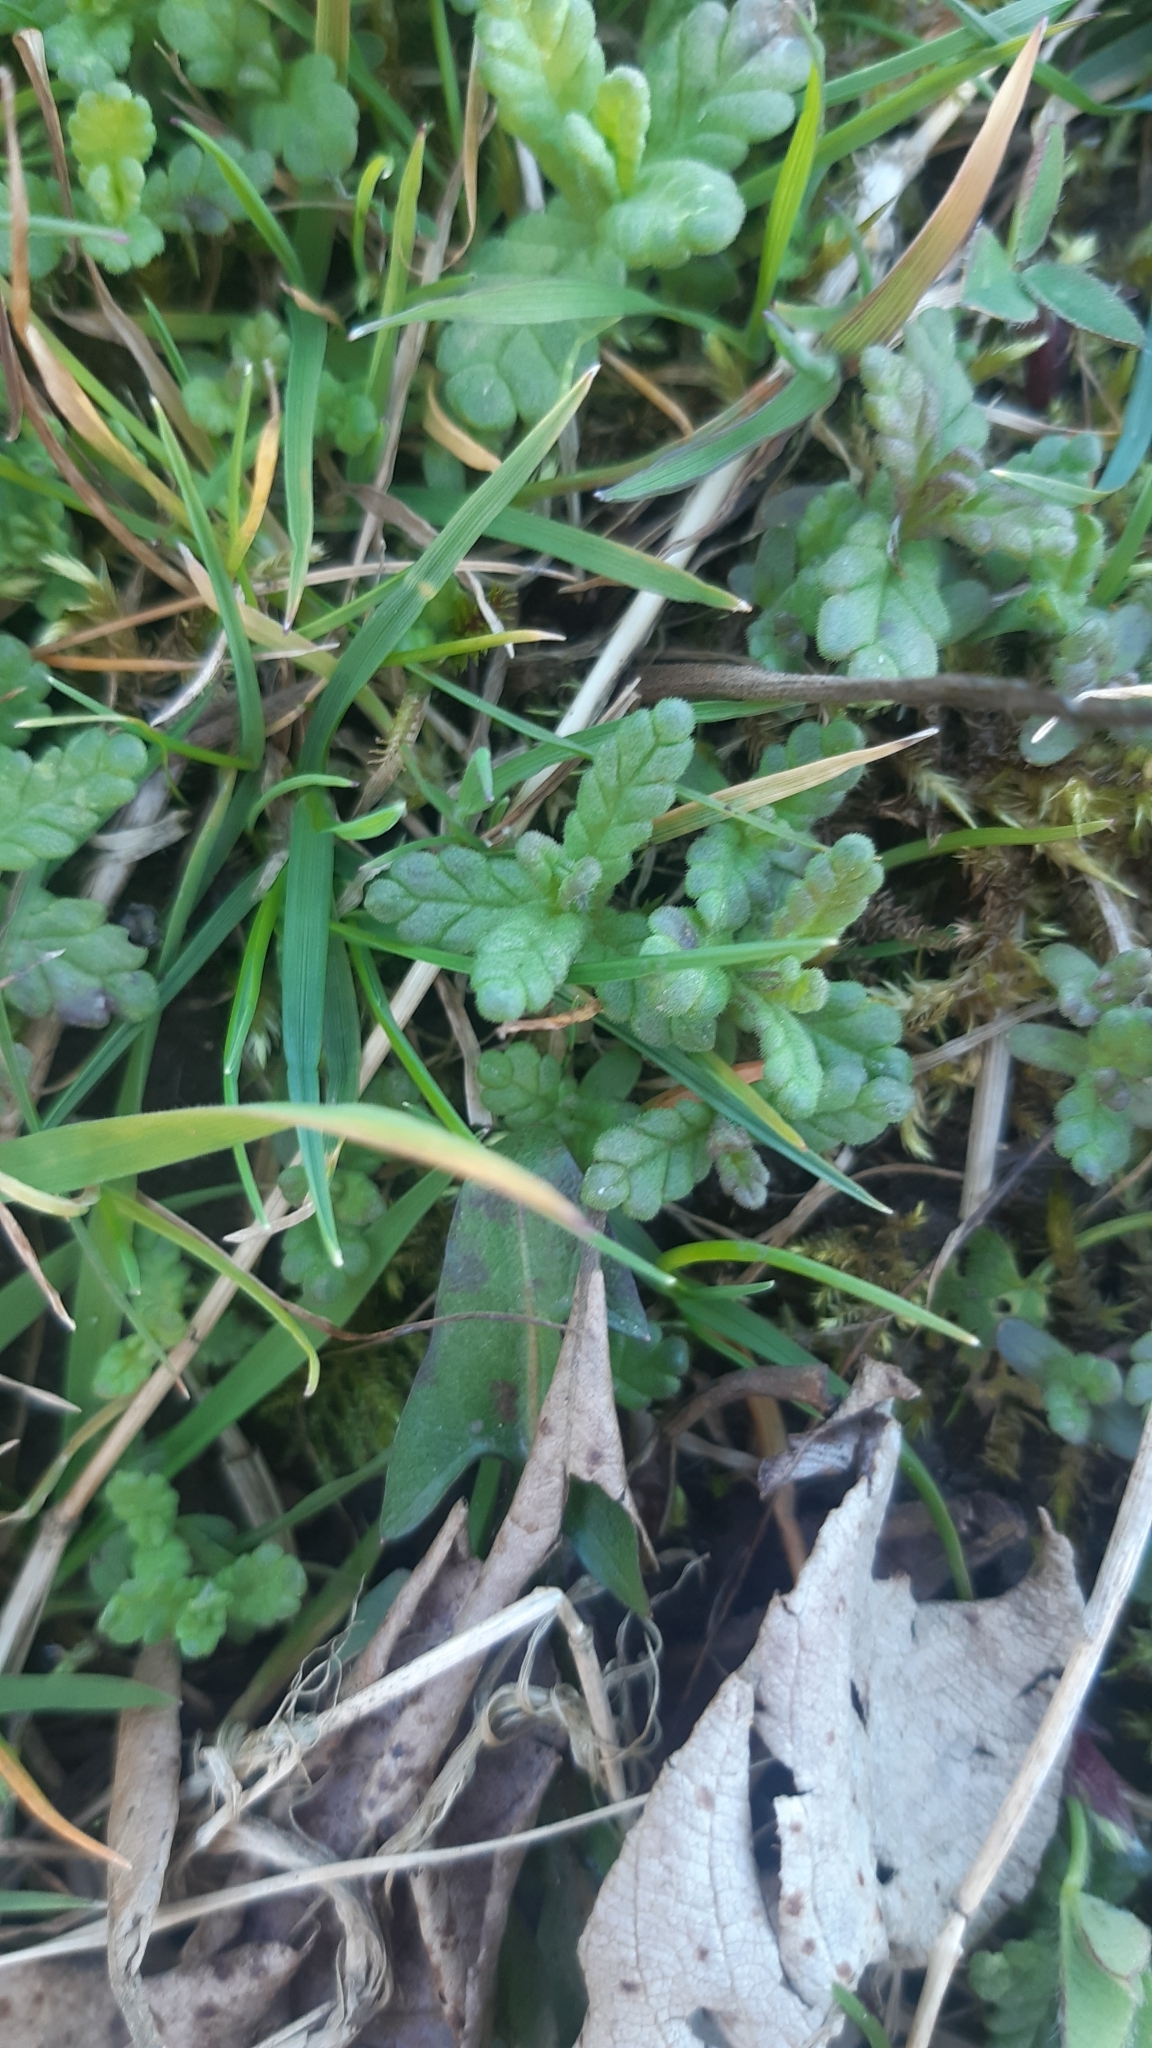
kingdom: Plantae
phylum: Tracheophyta
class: Magnoliopsida
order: Lamiales
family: Orobanchaceae
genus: Rhinanthus
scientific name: Rhinanthus minor
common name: Yellow-rattle
